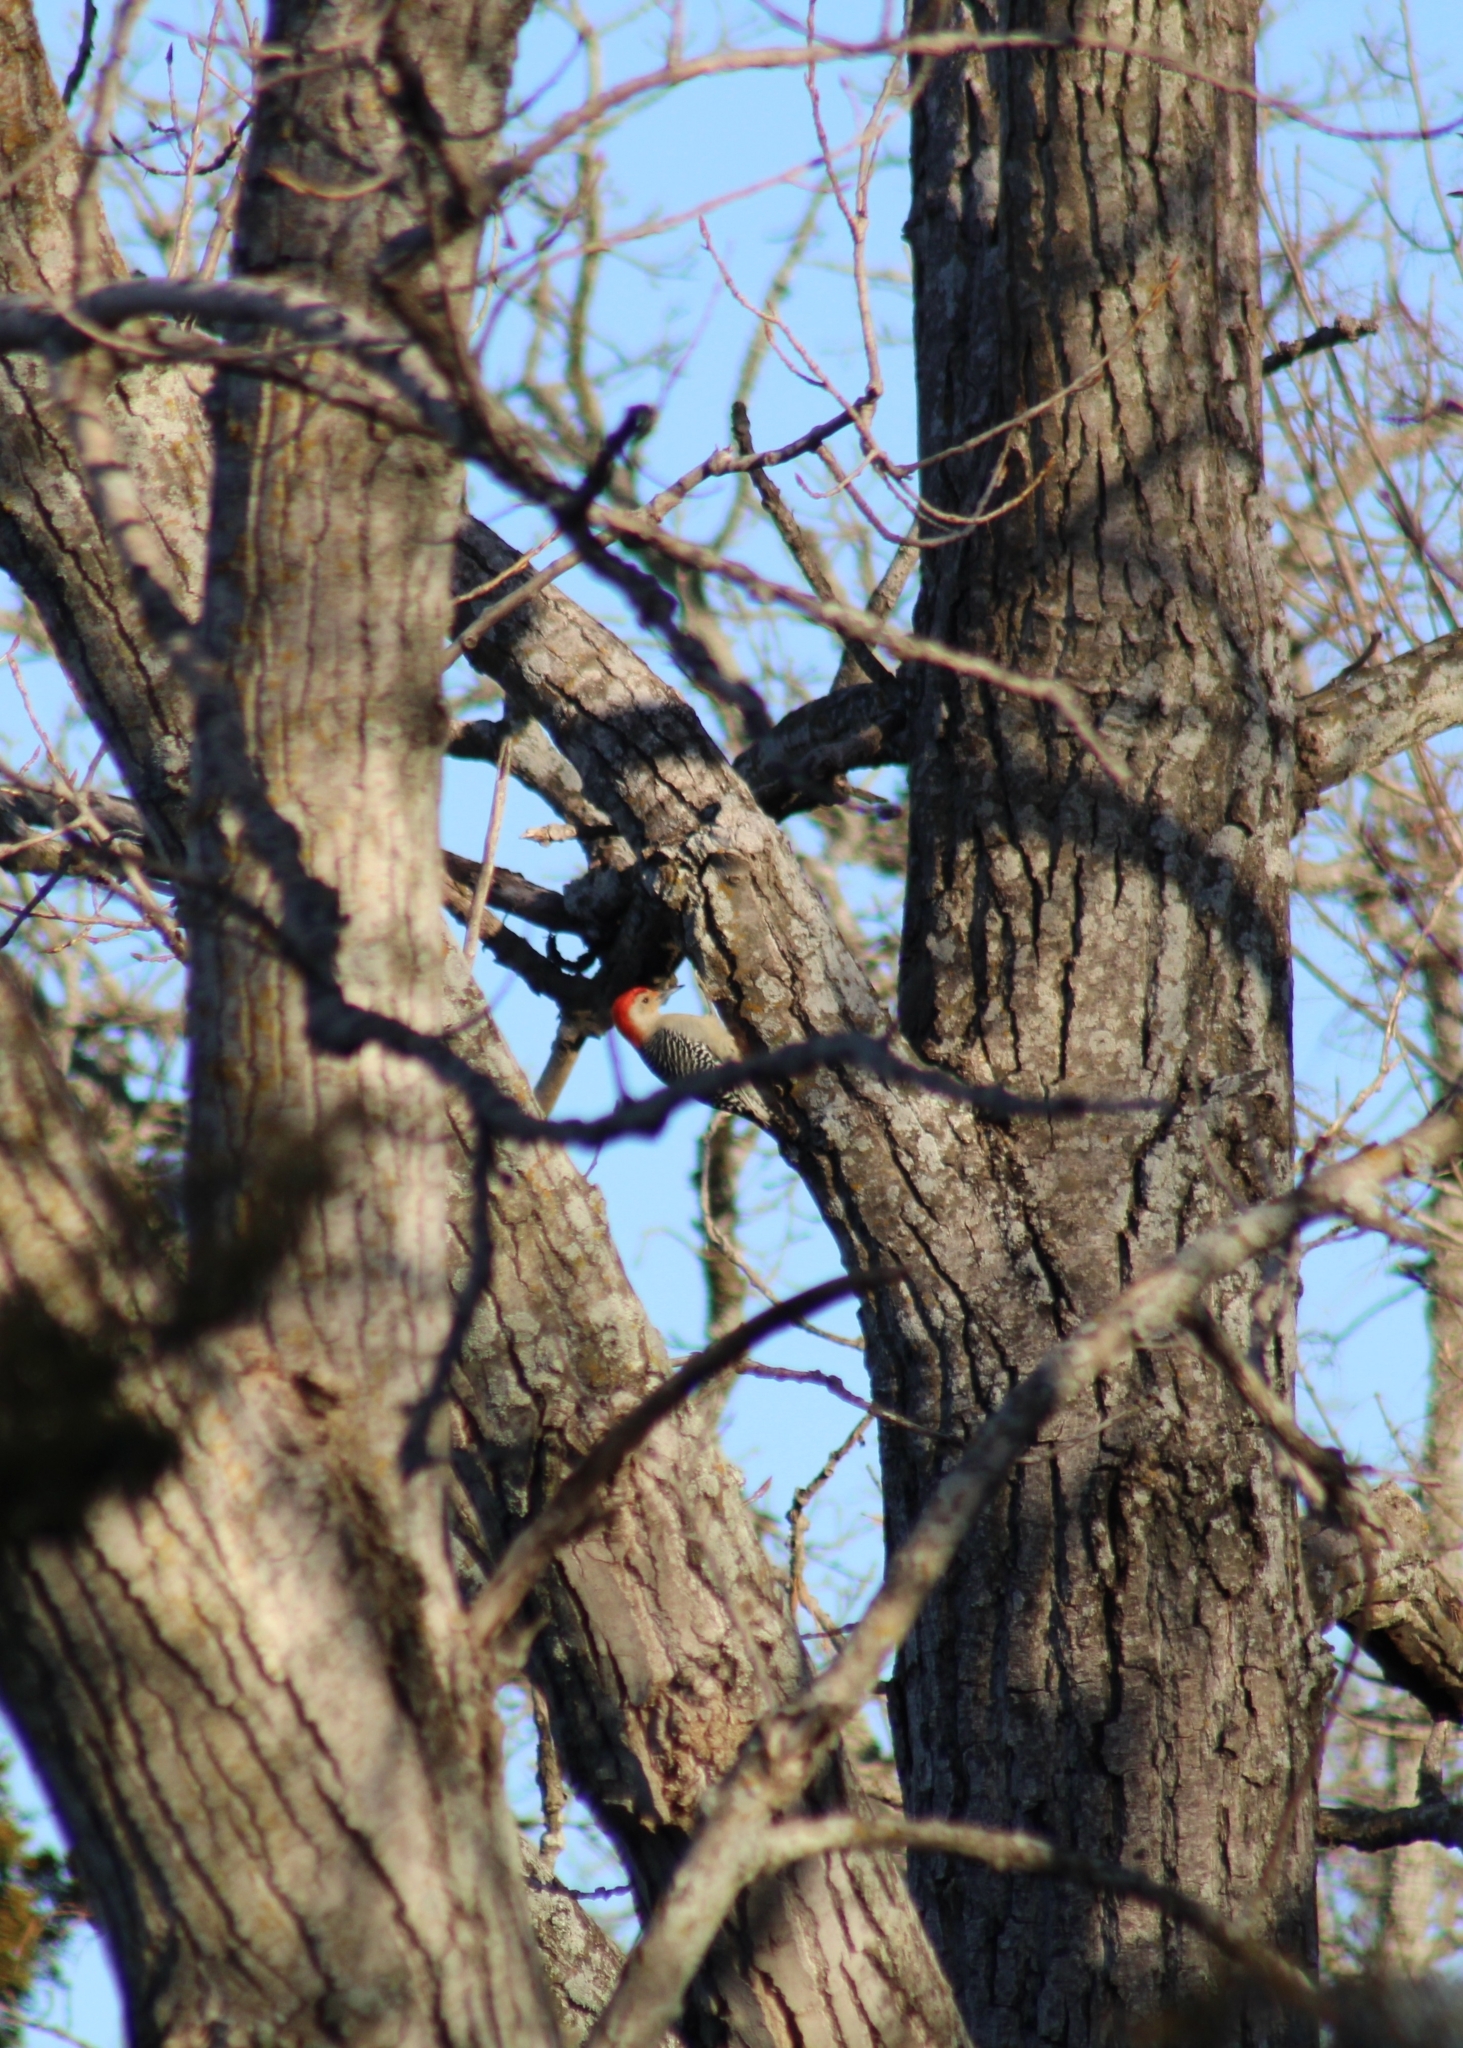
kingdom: Animalia
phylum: Chordata
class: Aves
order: Piciformes
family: Picidae
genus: Melanerpes
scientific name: Melanerpes carolinus
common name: Red-bellied woodpecker
